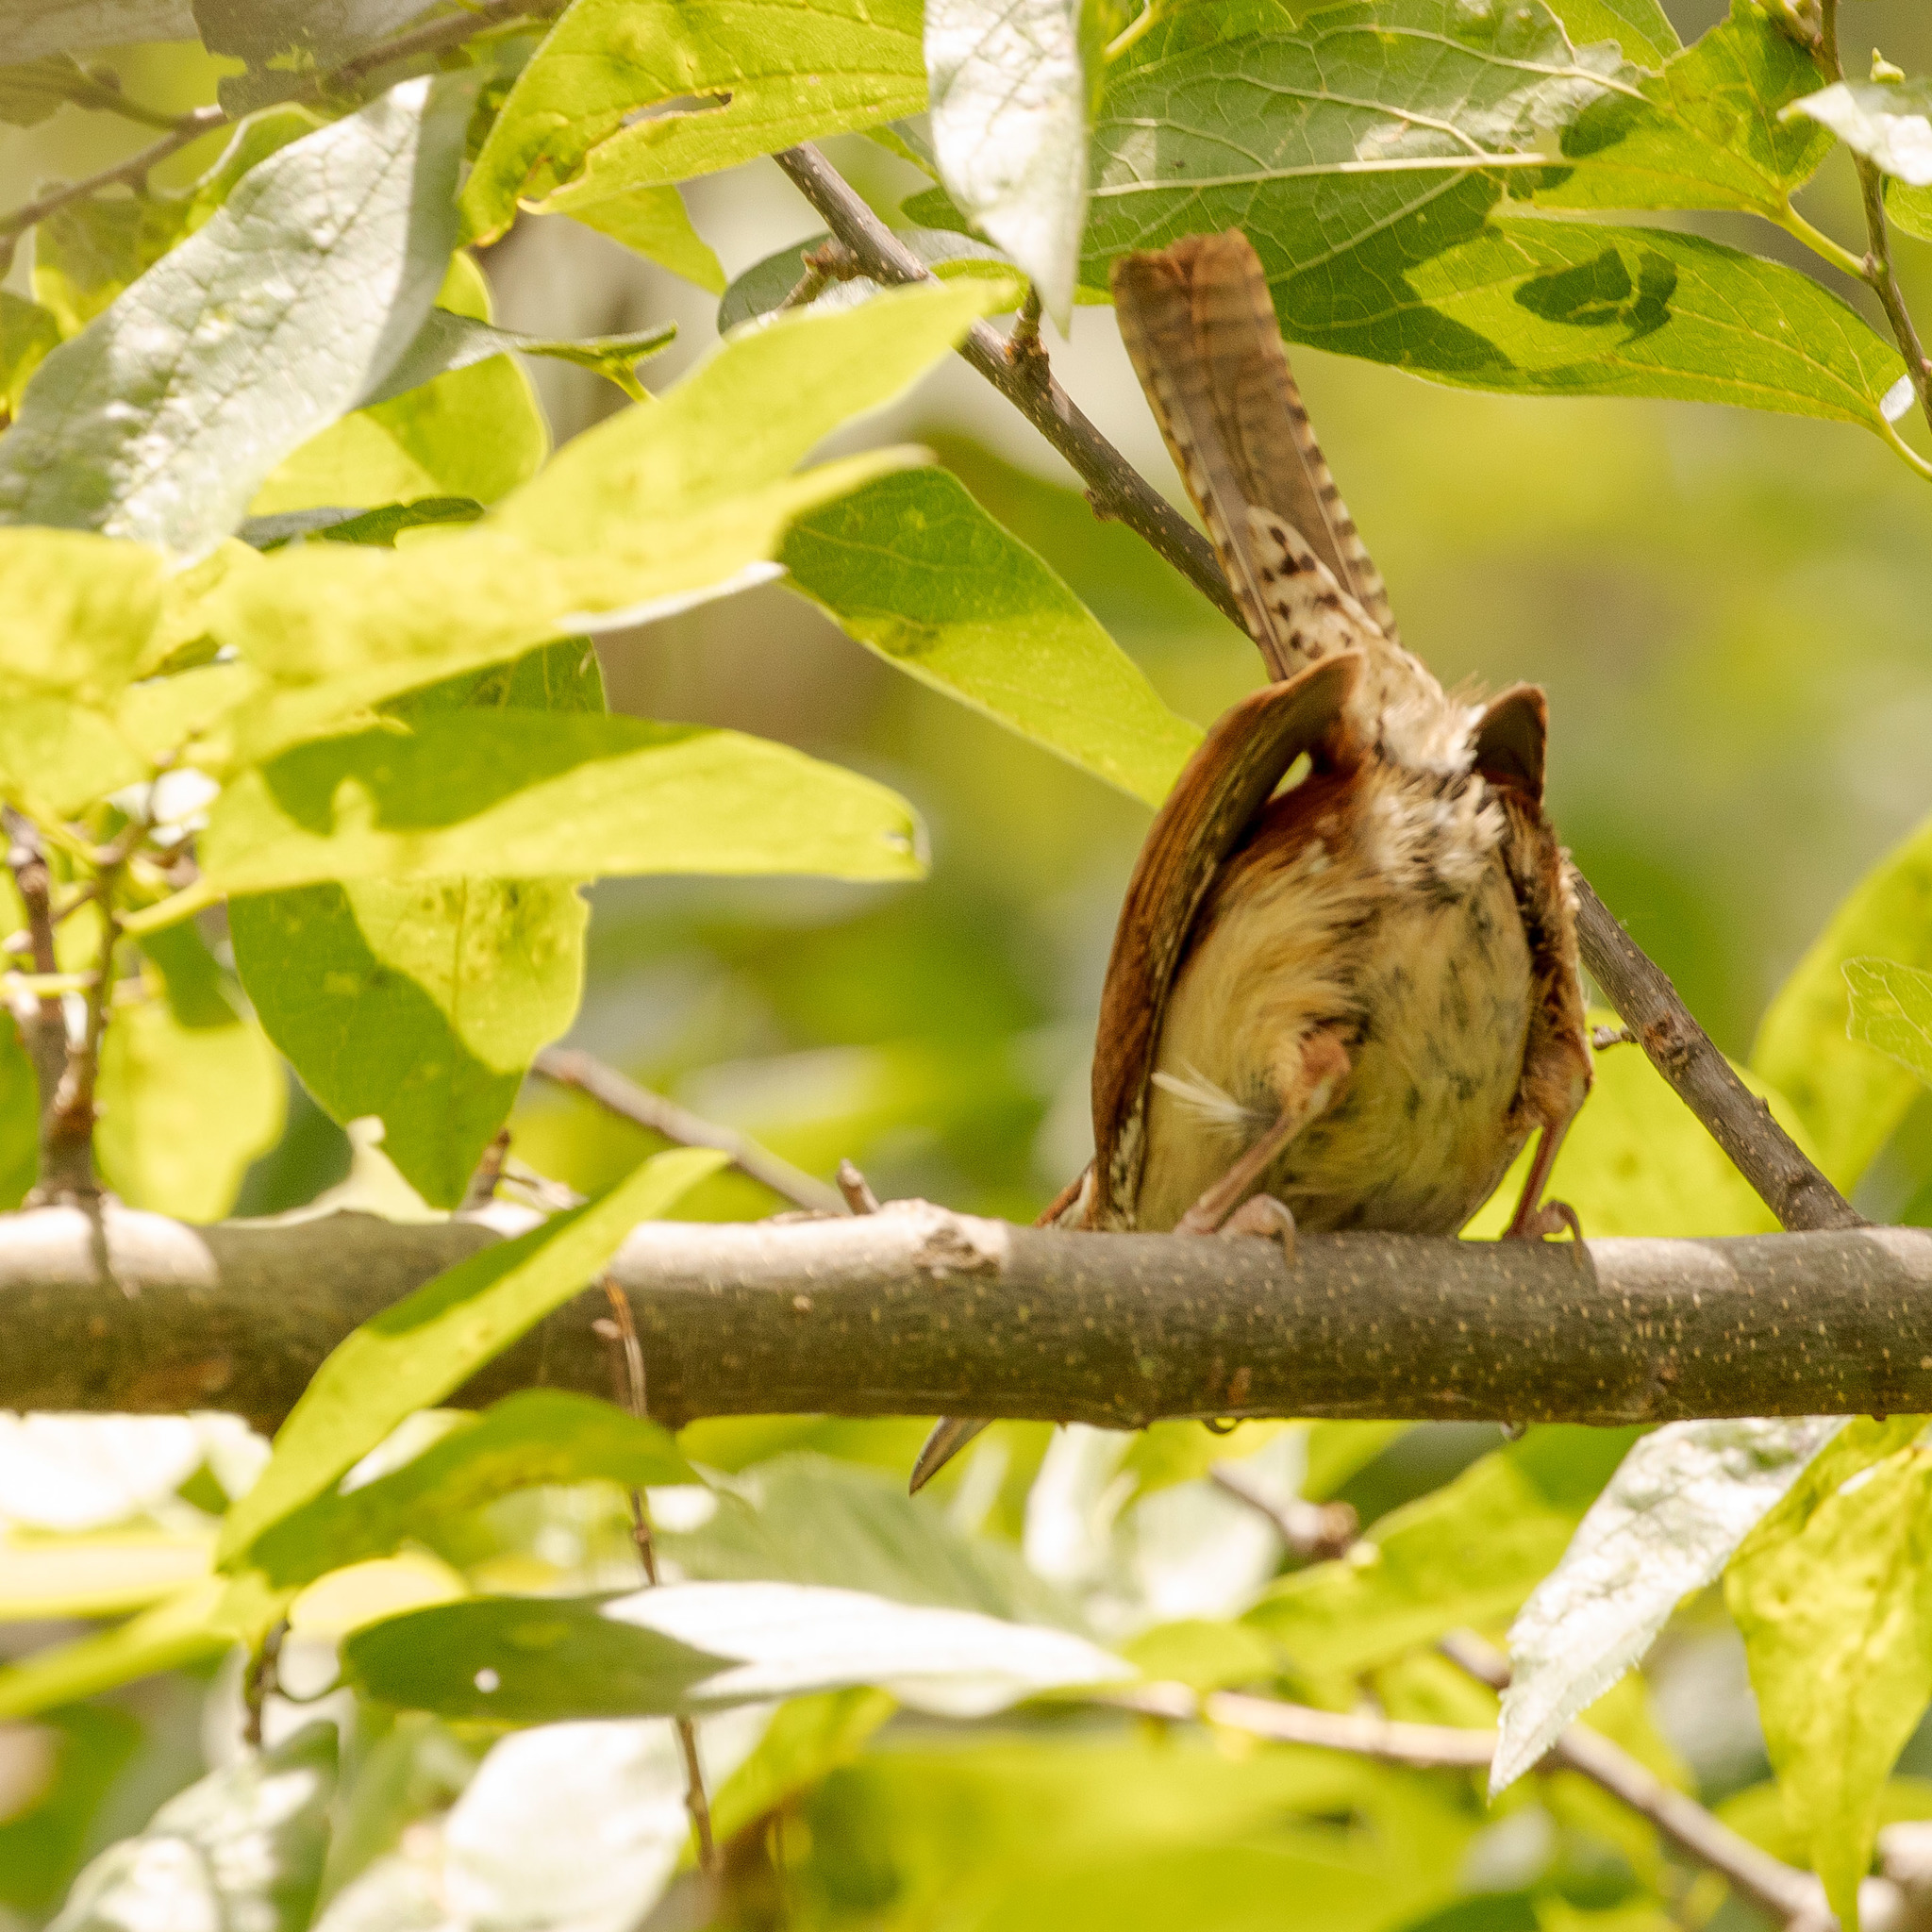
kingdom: Animalia
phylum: Chordata
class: Aves
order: Passeriformes
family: Troglodytidae
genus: Thryothorus
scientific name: Thryothorus ludovicianus
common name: Carolina wren
